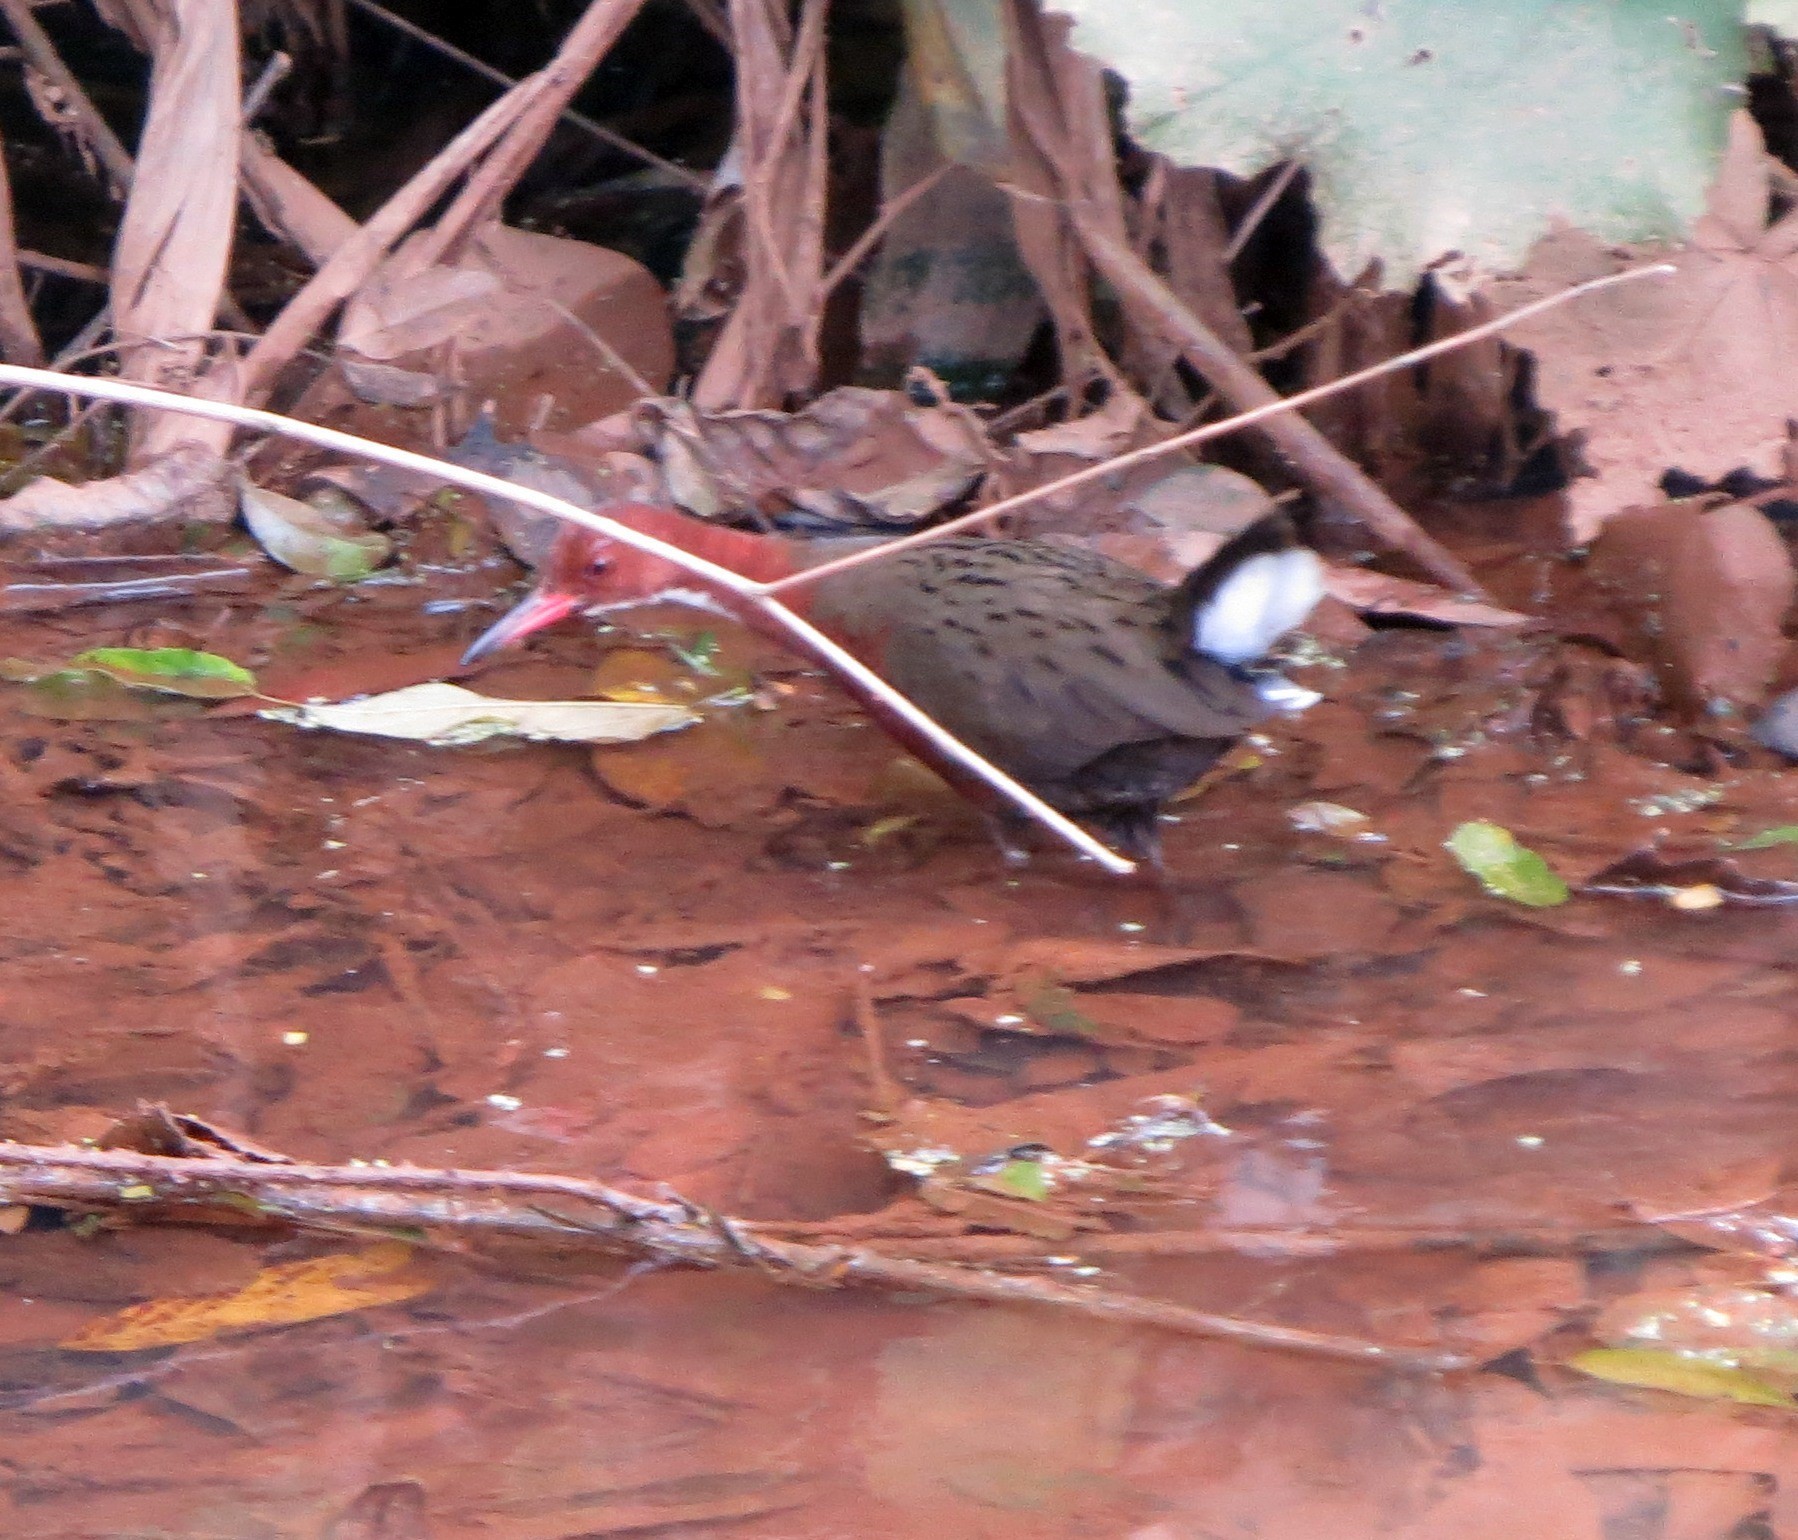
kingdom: Animalia
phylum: Chordata
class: Aves
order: Gruiformes
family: Rallidae
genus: Dryolimnas
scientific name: Dryolimnas cuvieri
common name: White-throated rail
